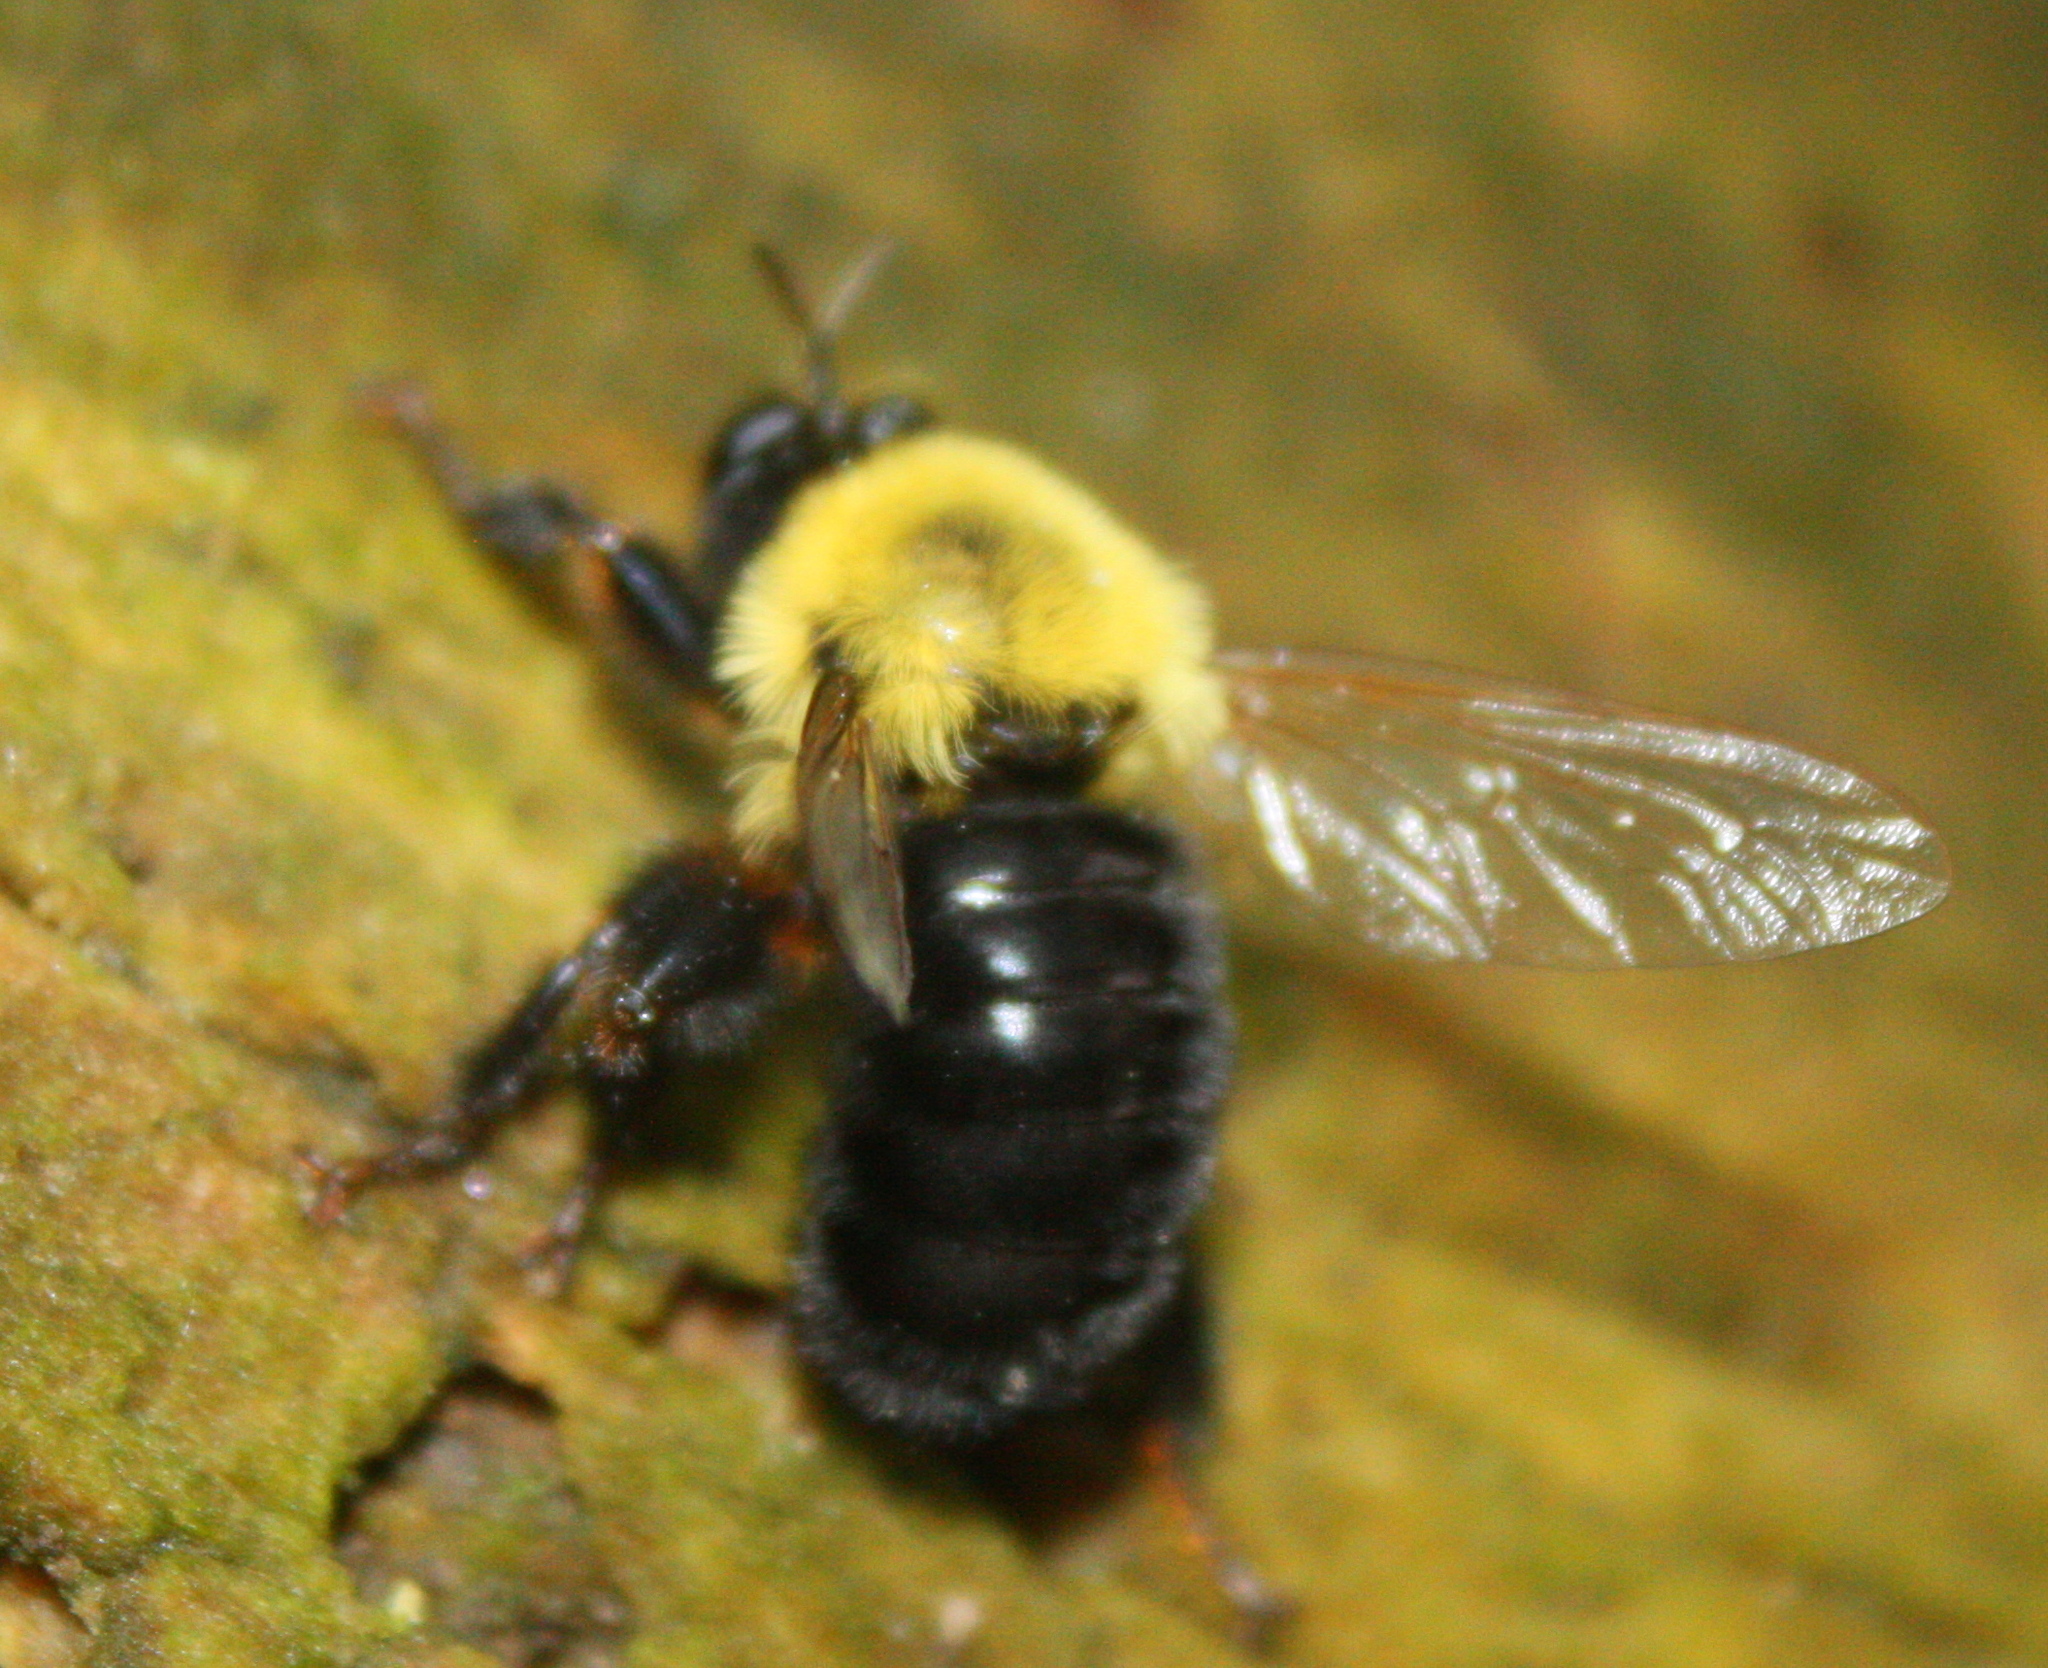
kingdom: Animalia
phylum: Arthropoda
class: Insecta
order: Diptera
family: Asilidae
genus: Laphria
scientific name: Laphria thoracica
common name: Bumble bee mimic robber fly
